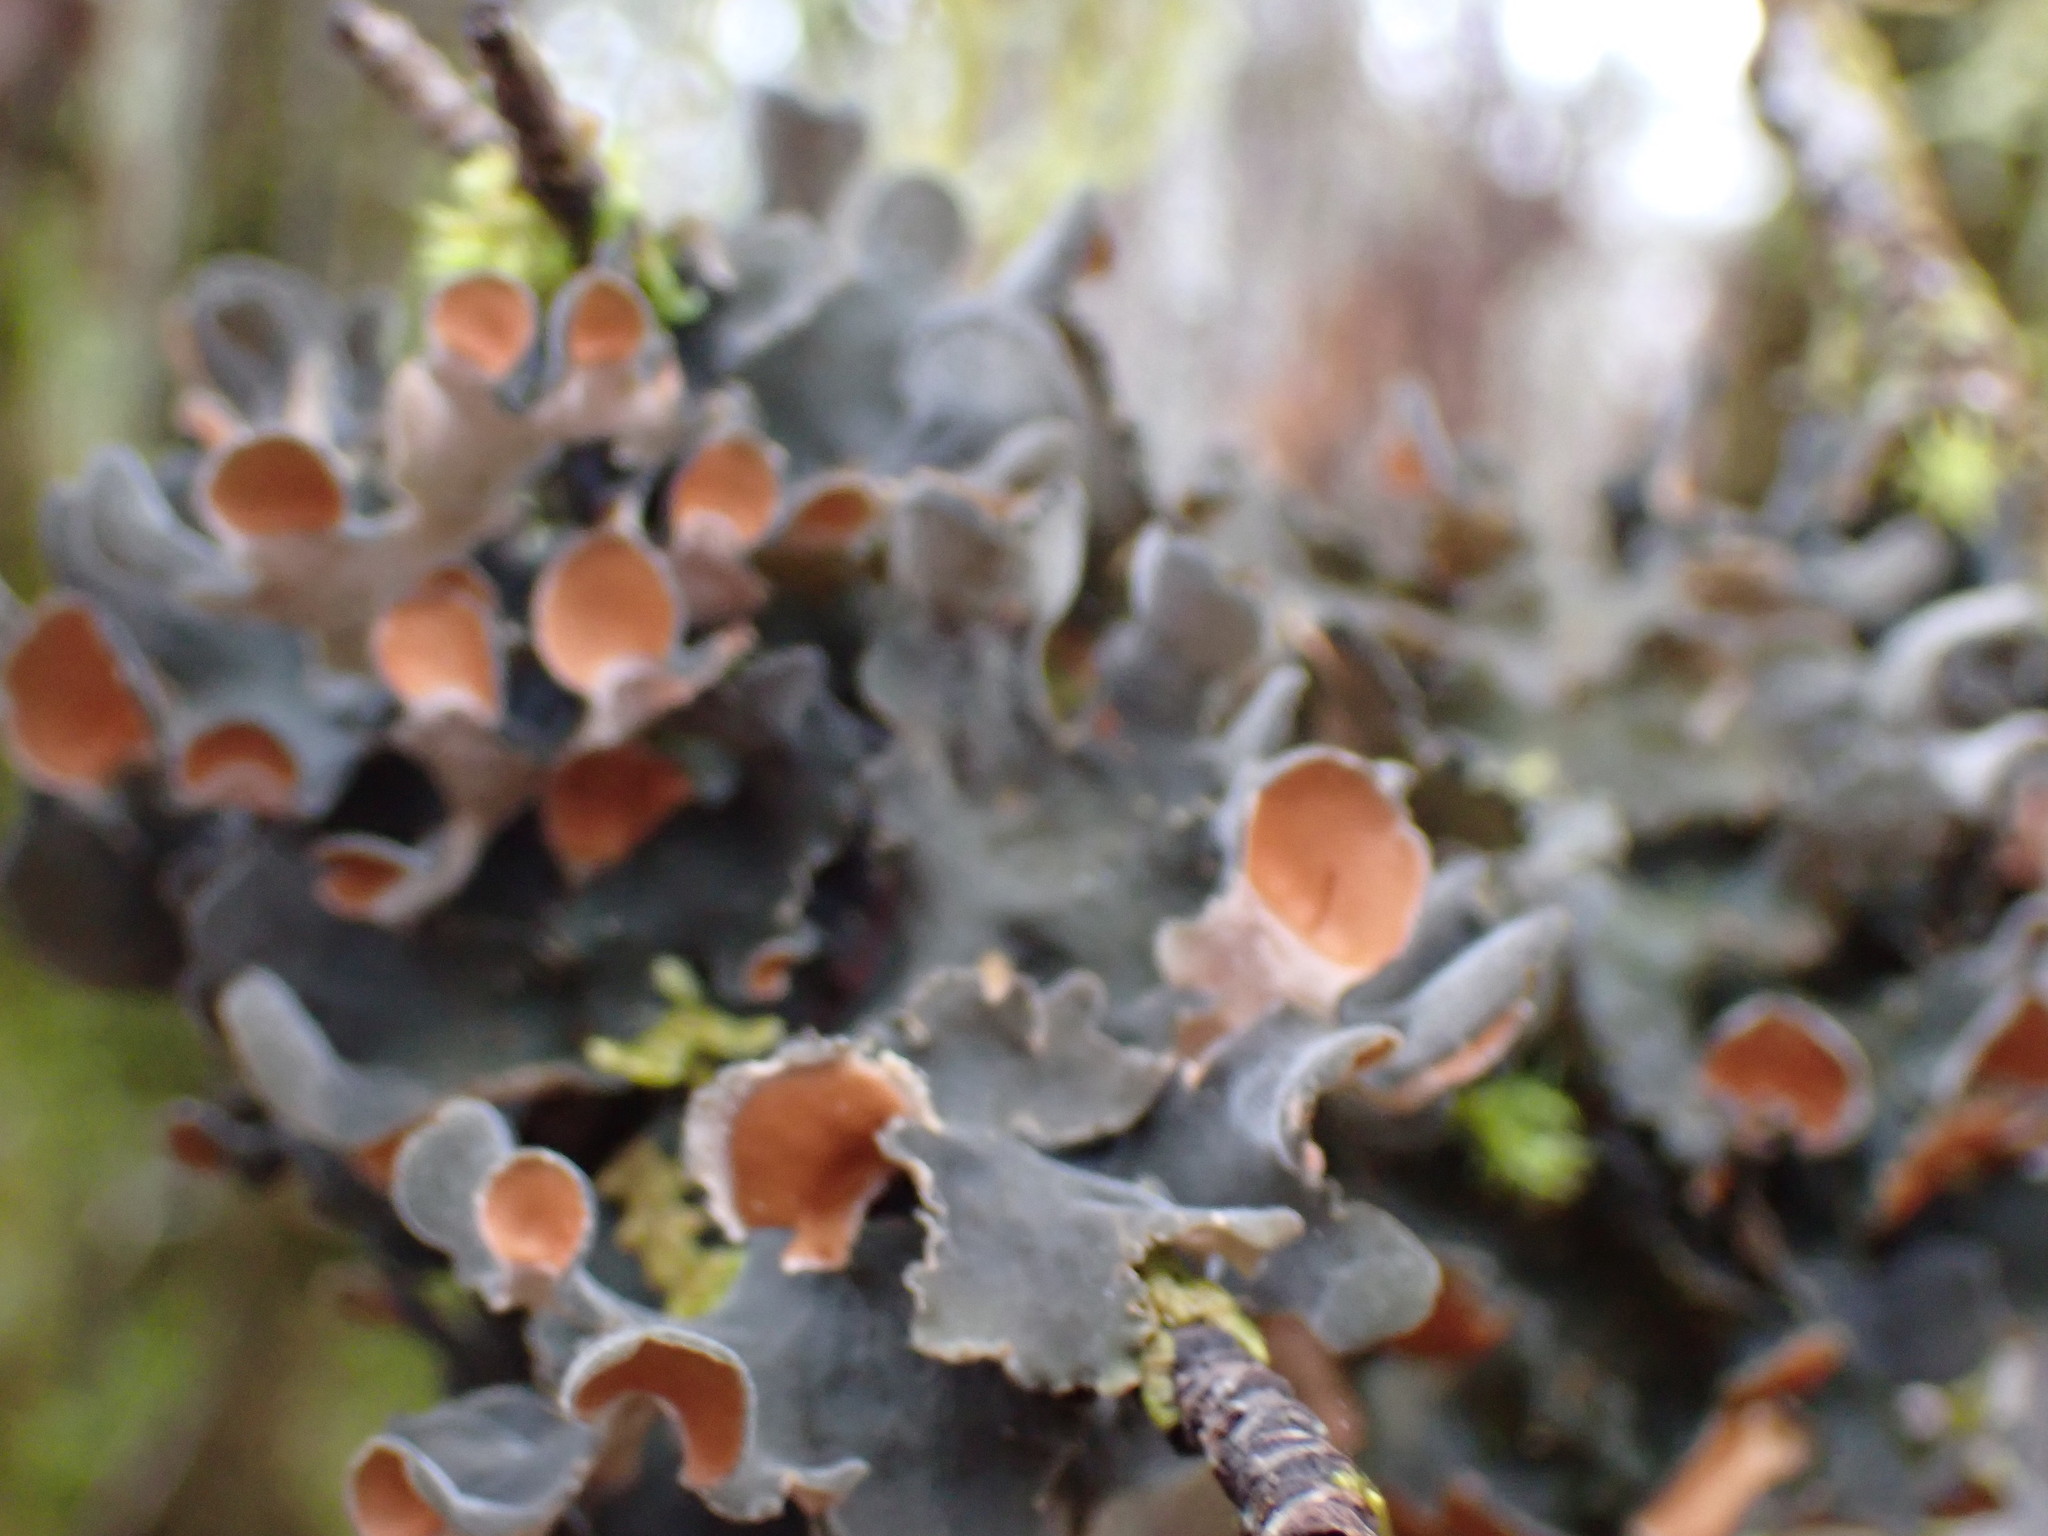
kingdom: Fungi
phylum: Ascomycota
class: Lecanoromycetes
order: Peltigerales
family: Nephromataceae
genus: Nephroma
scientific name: Nephroma resupinatum
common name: Pimpled kidney lichen
